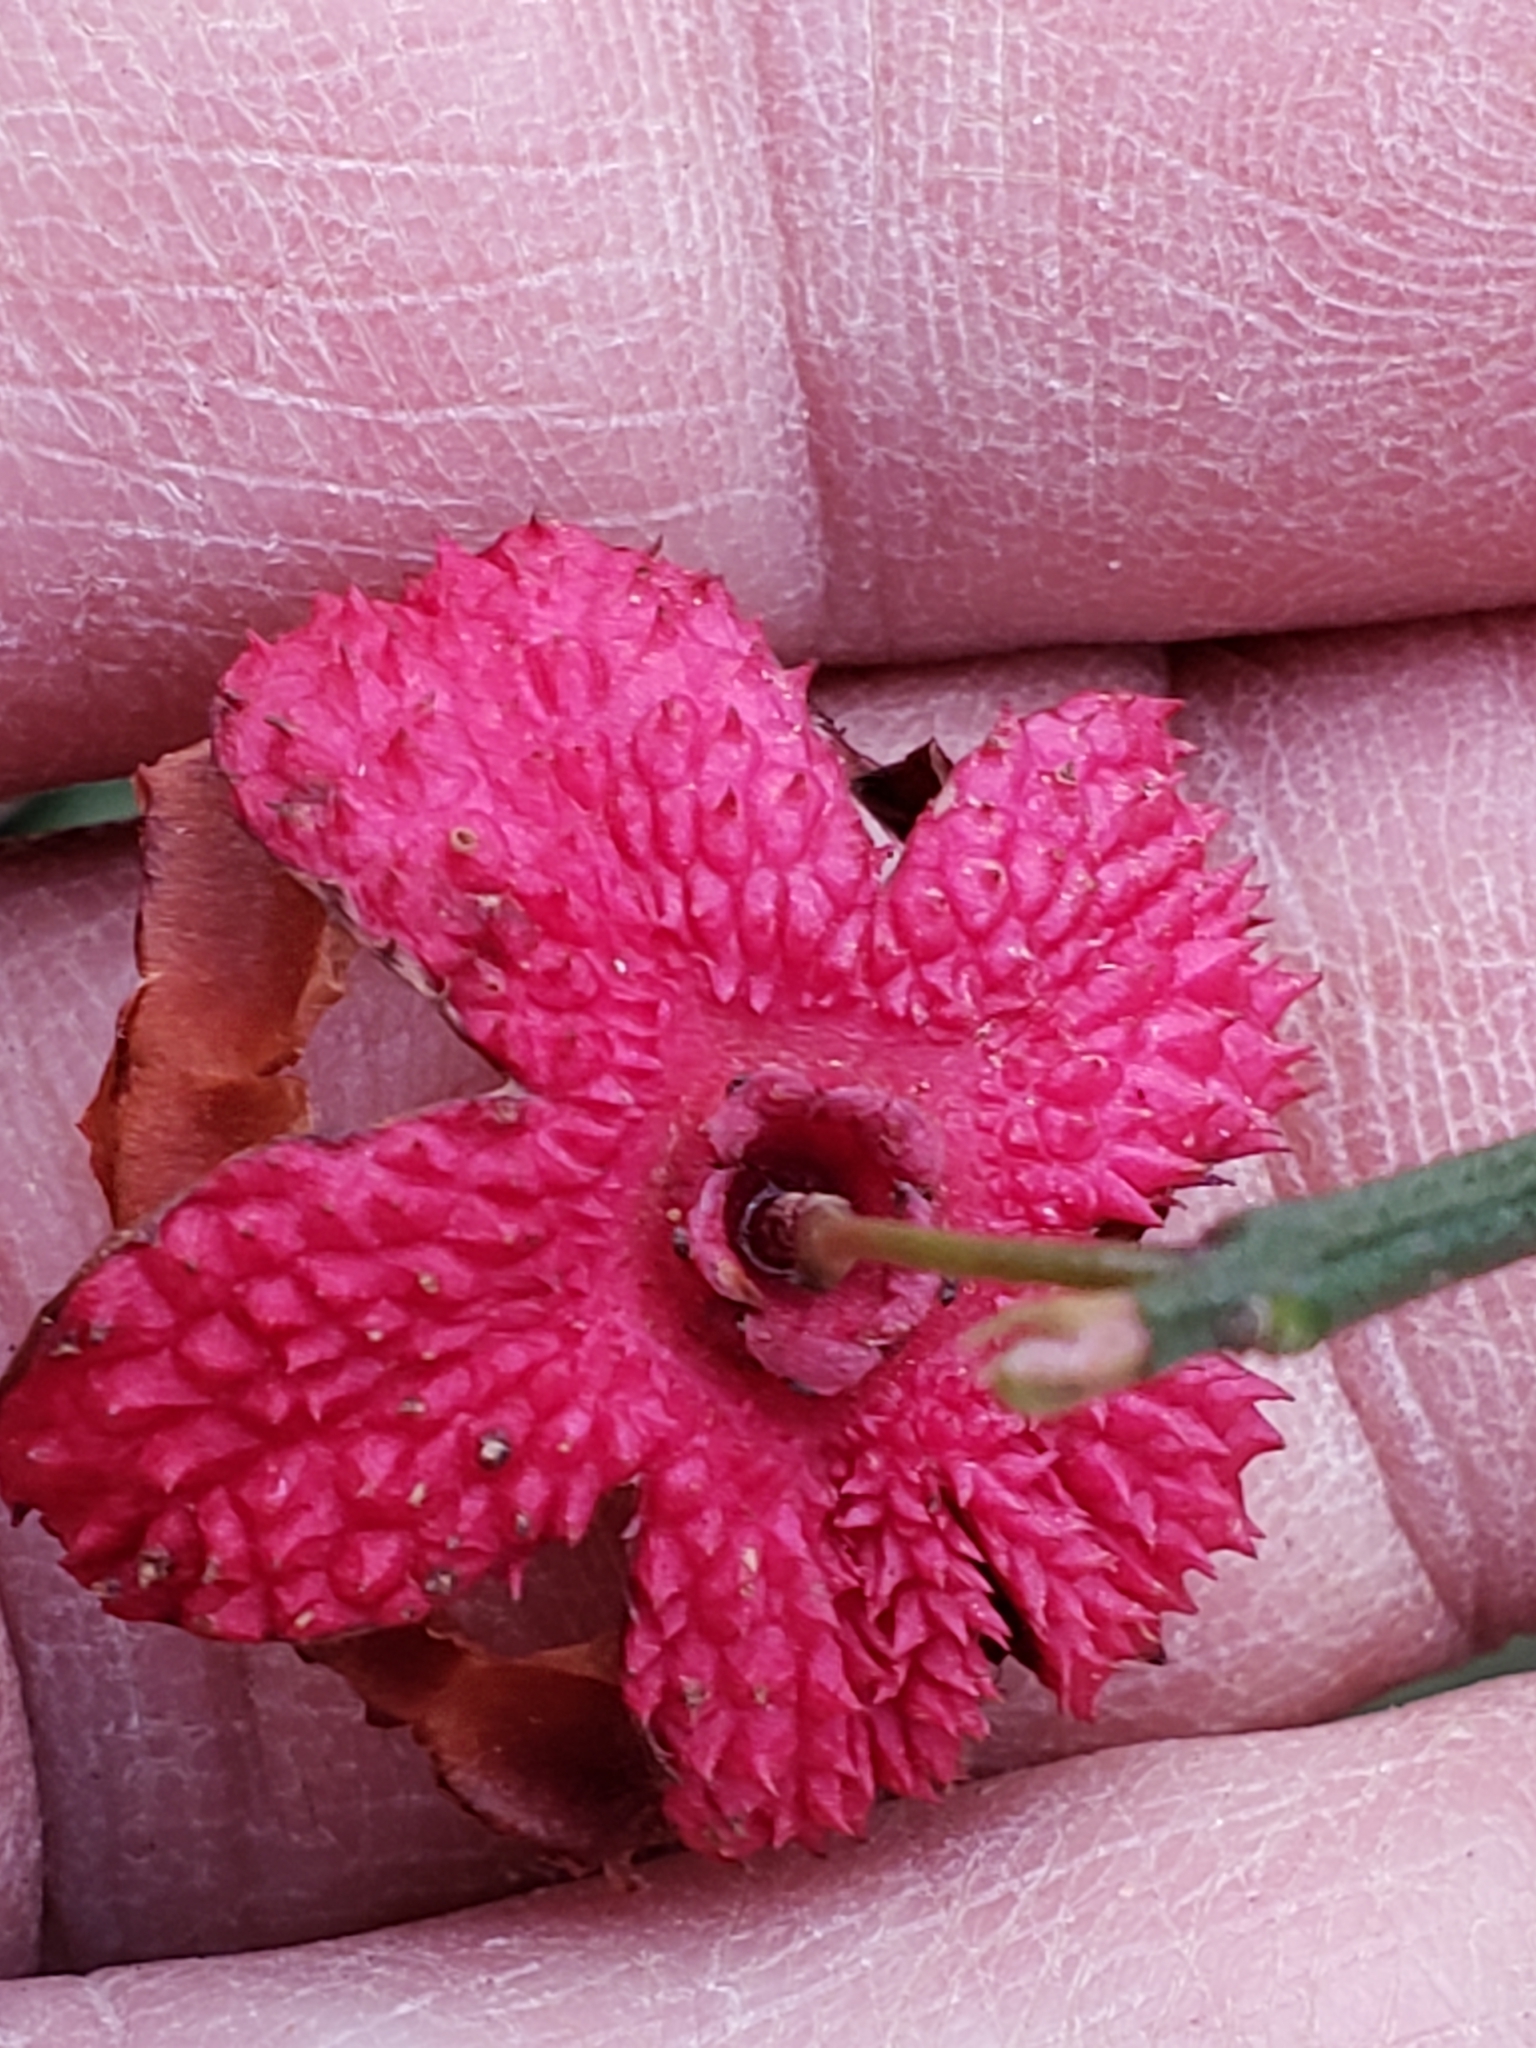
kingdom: Plantae
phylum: Tracheophyta
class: Magnoliopsida
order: Celastrales
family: Celastraceae
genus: Euonymus
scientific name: Euonymus americanus
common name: Bursting-heart
